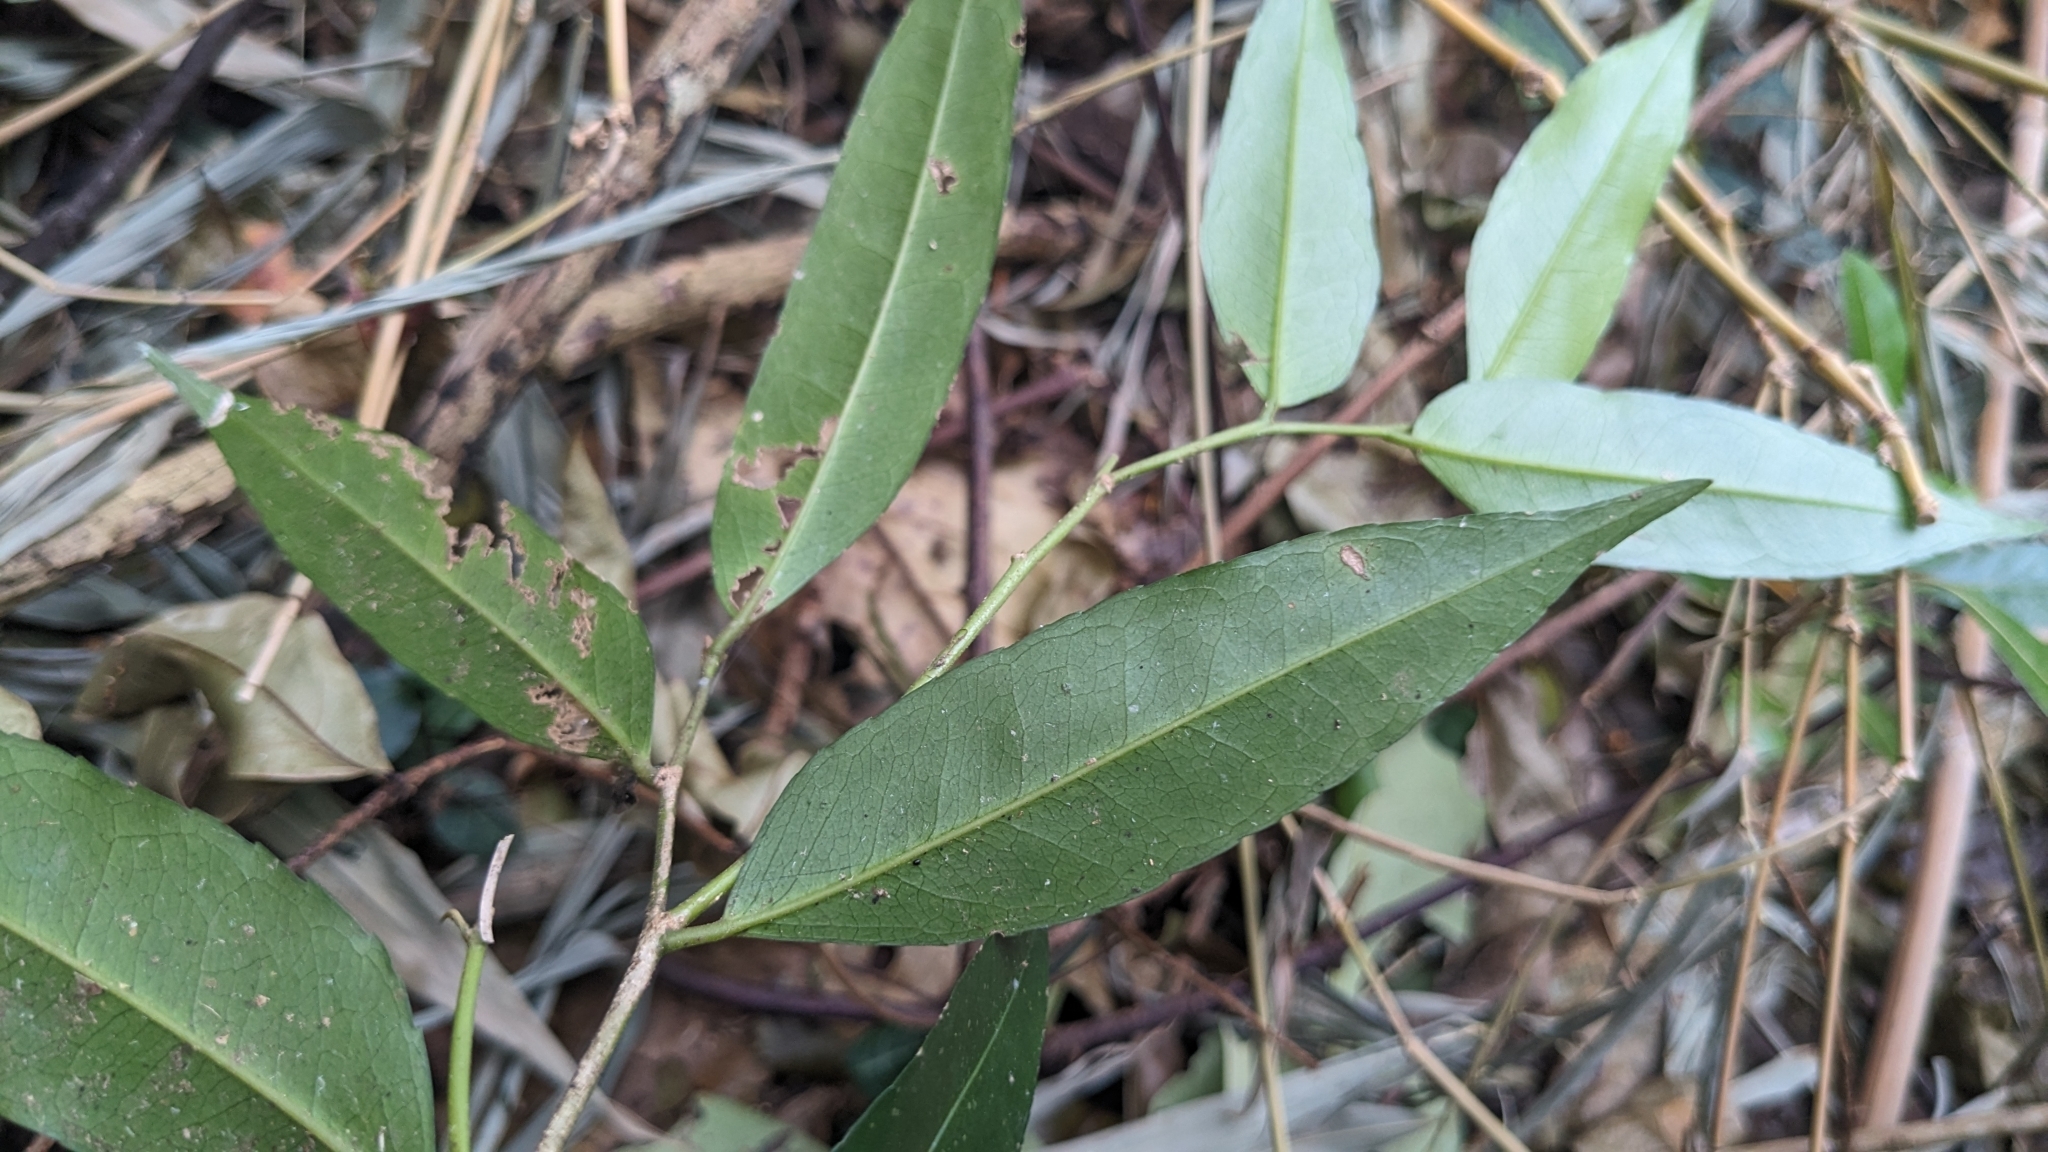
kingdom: Plantae
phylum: Tracheophyta
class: Magnoliopsida
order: Malpighiales
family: Putranjivaceae
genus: Putranjiva
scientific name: Putranjiva formosana
